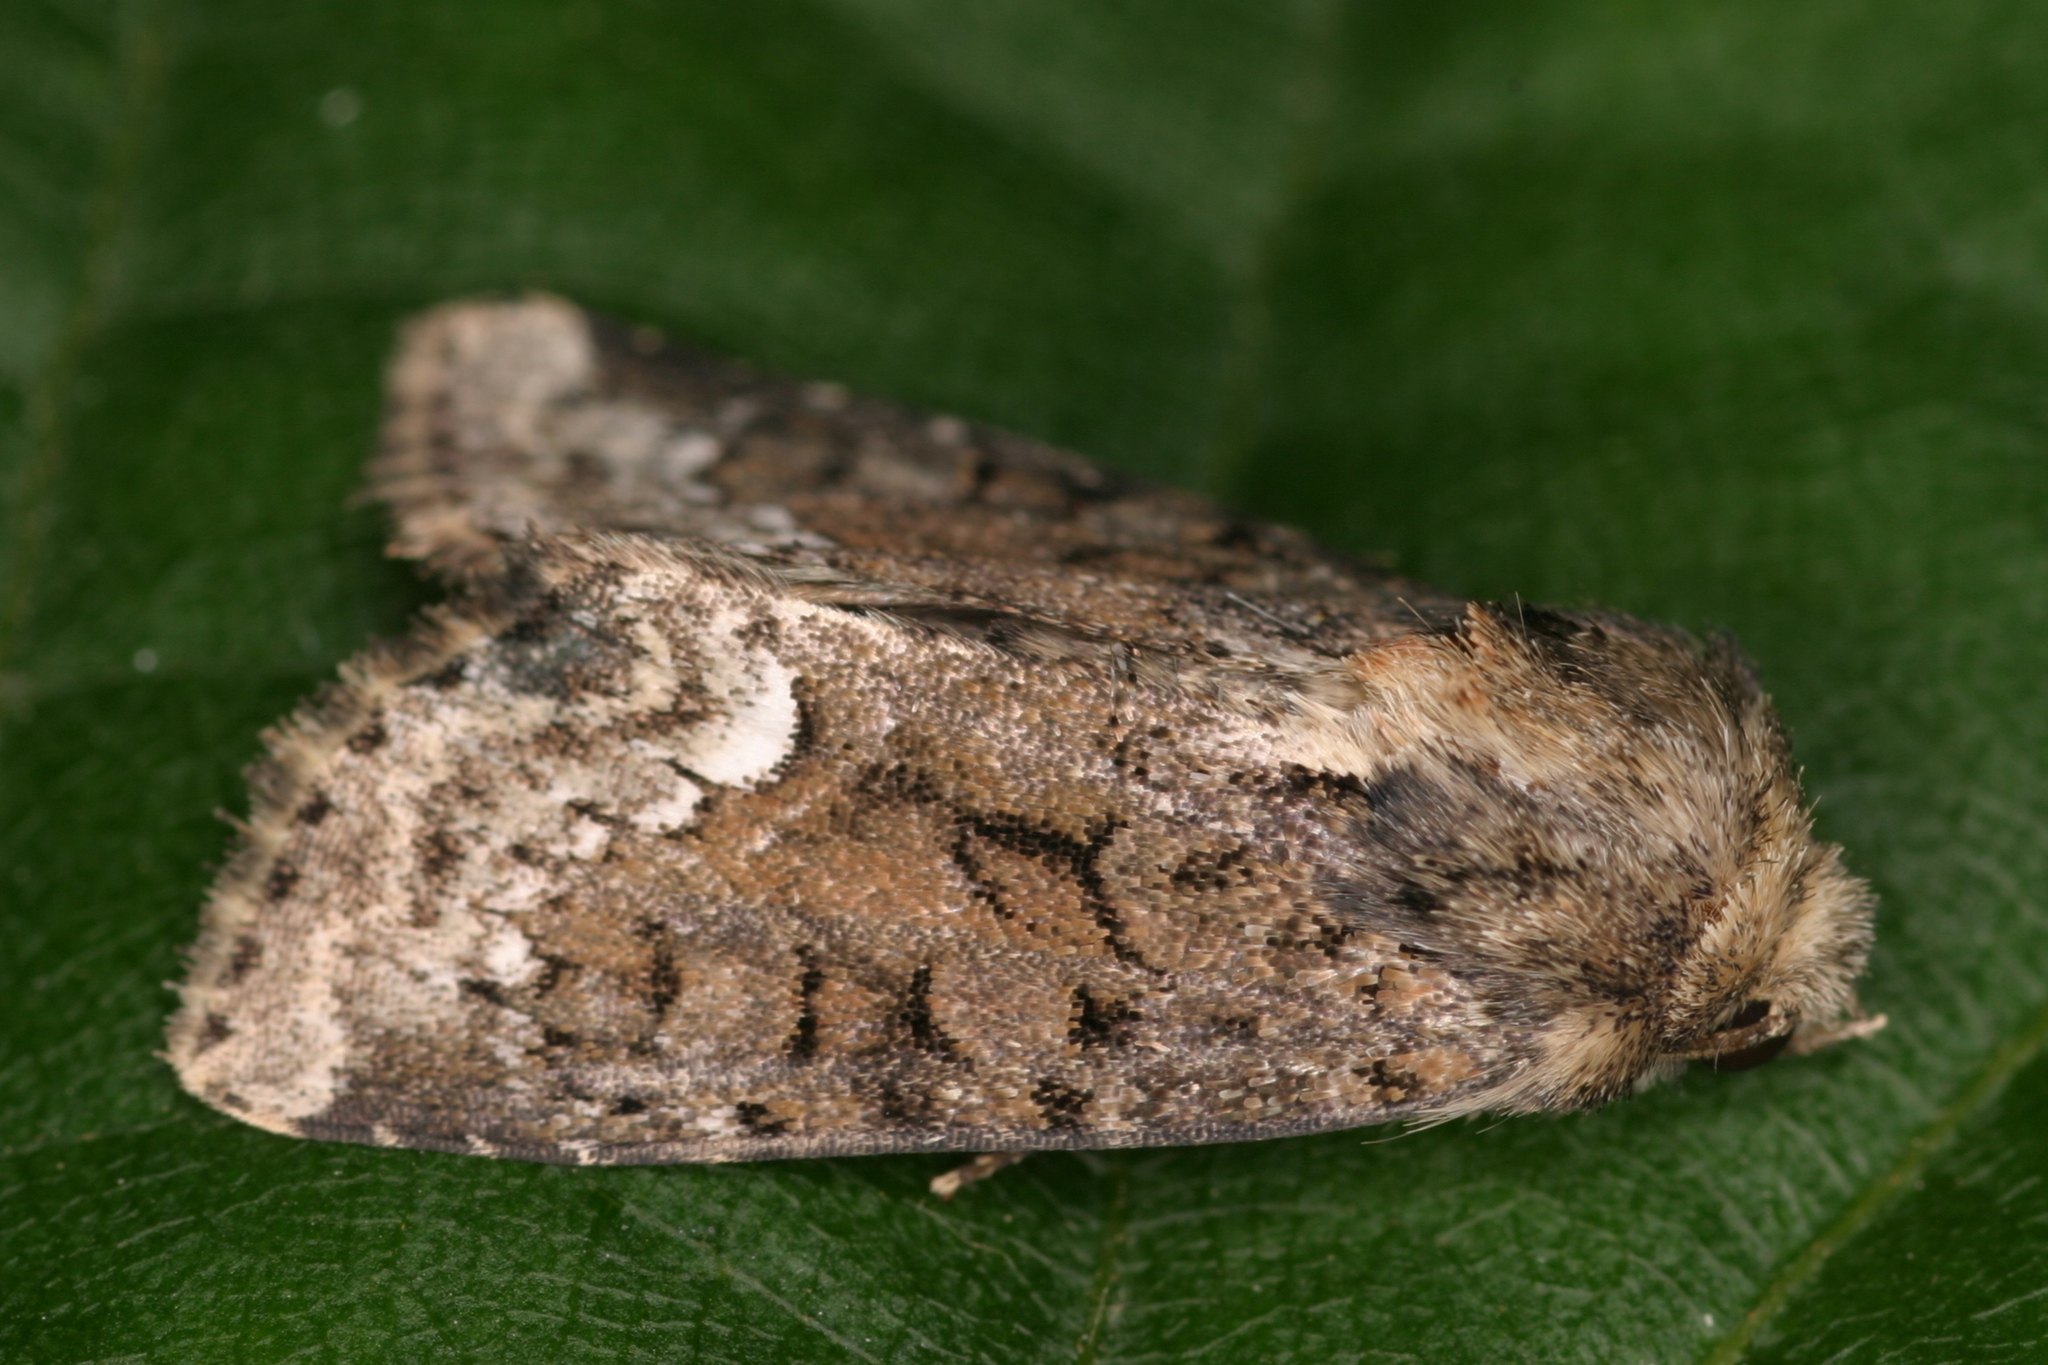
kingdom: Animalia
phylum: Arthropoda
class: Insecta
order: Lepidoptera
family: Noctuidae
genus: Oligia
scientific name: Oligia strigilis
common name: Marbled minor
